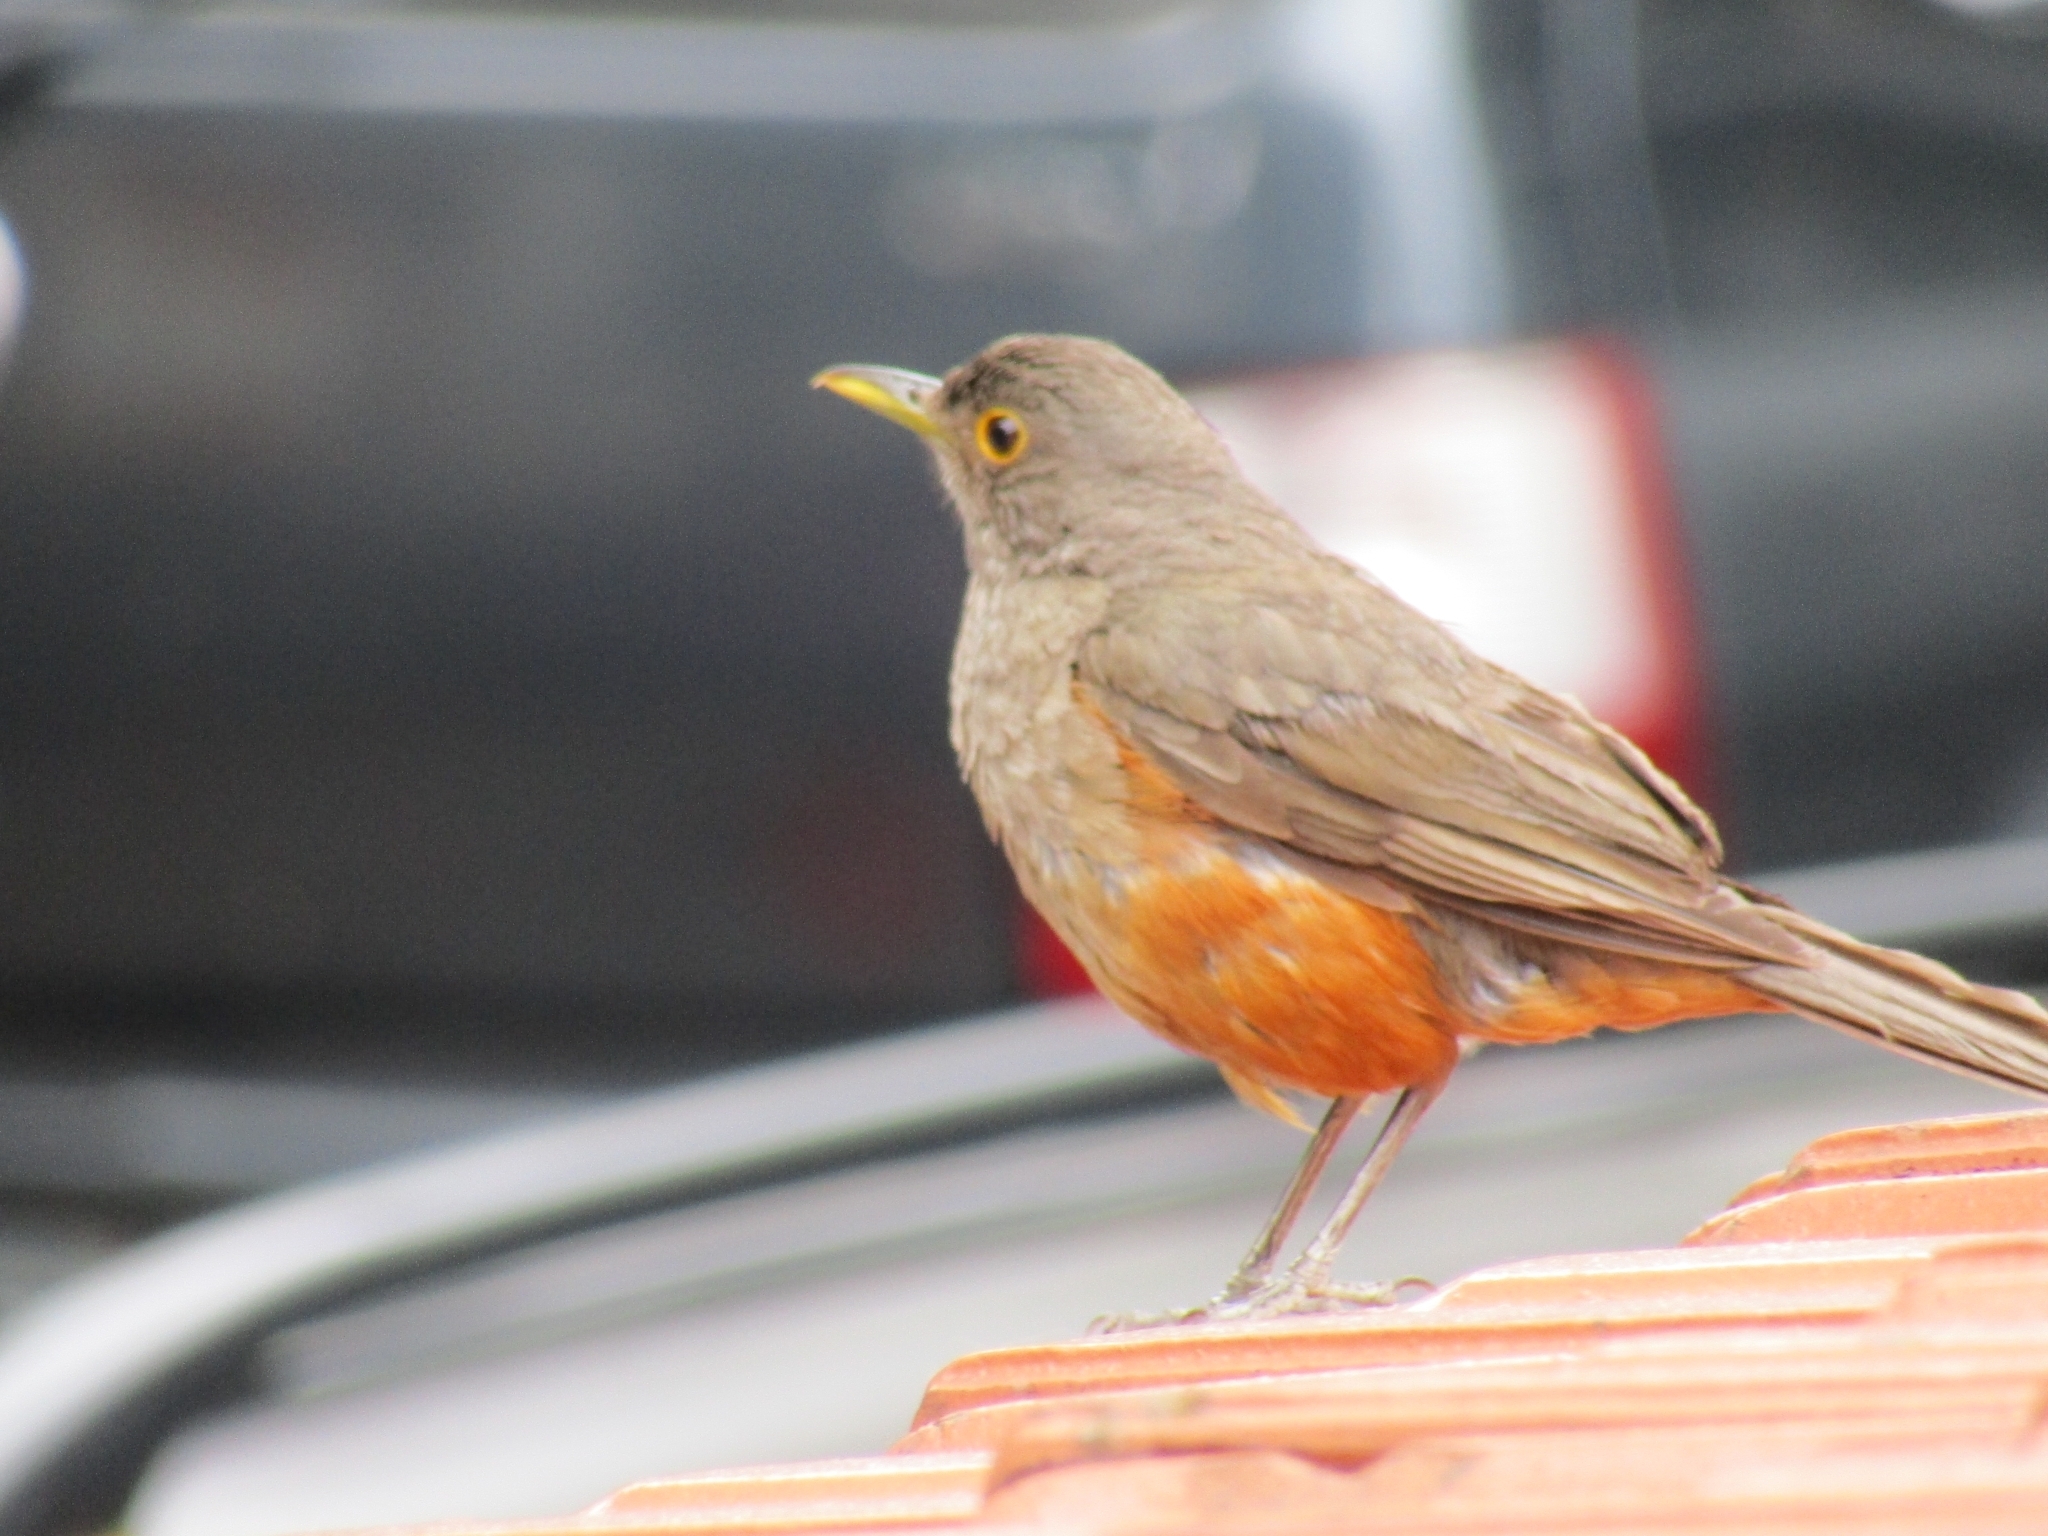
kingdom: Animalia
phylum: Chordata
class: Aves
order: Passeriformes
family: Turdidae
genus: Turdus
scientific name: Turdus rufiventris
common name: Rufous-bellied thrush
